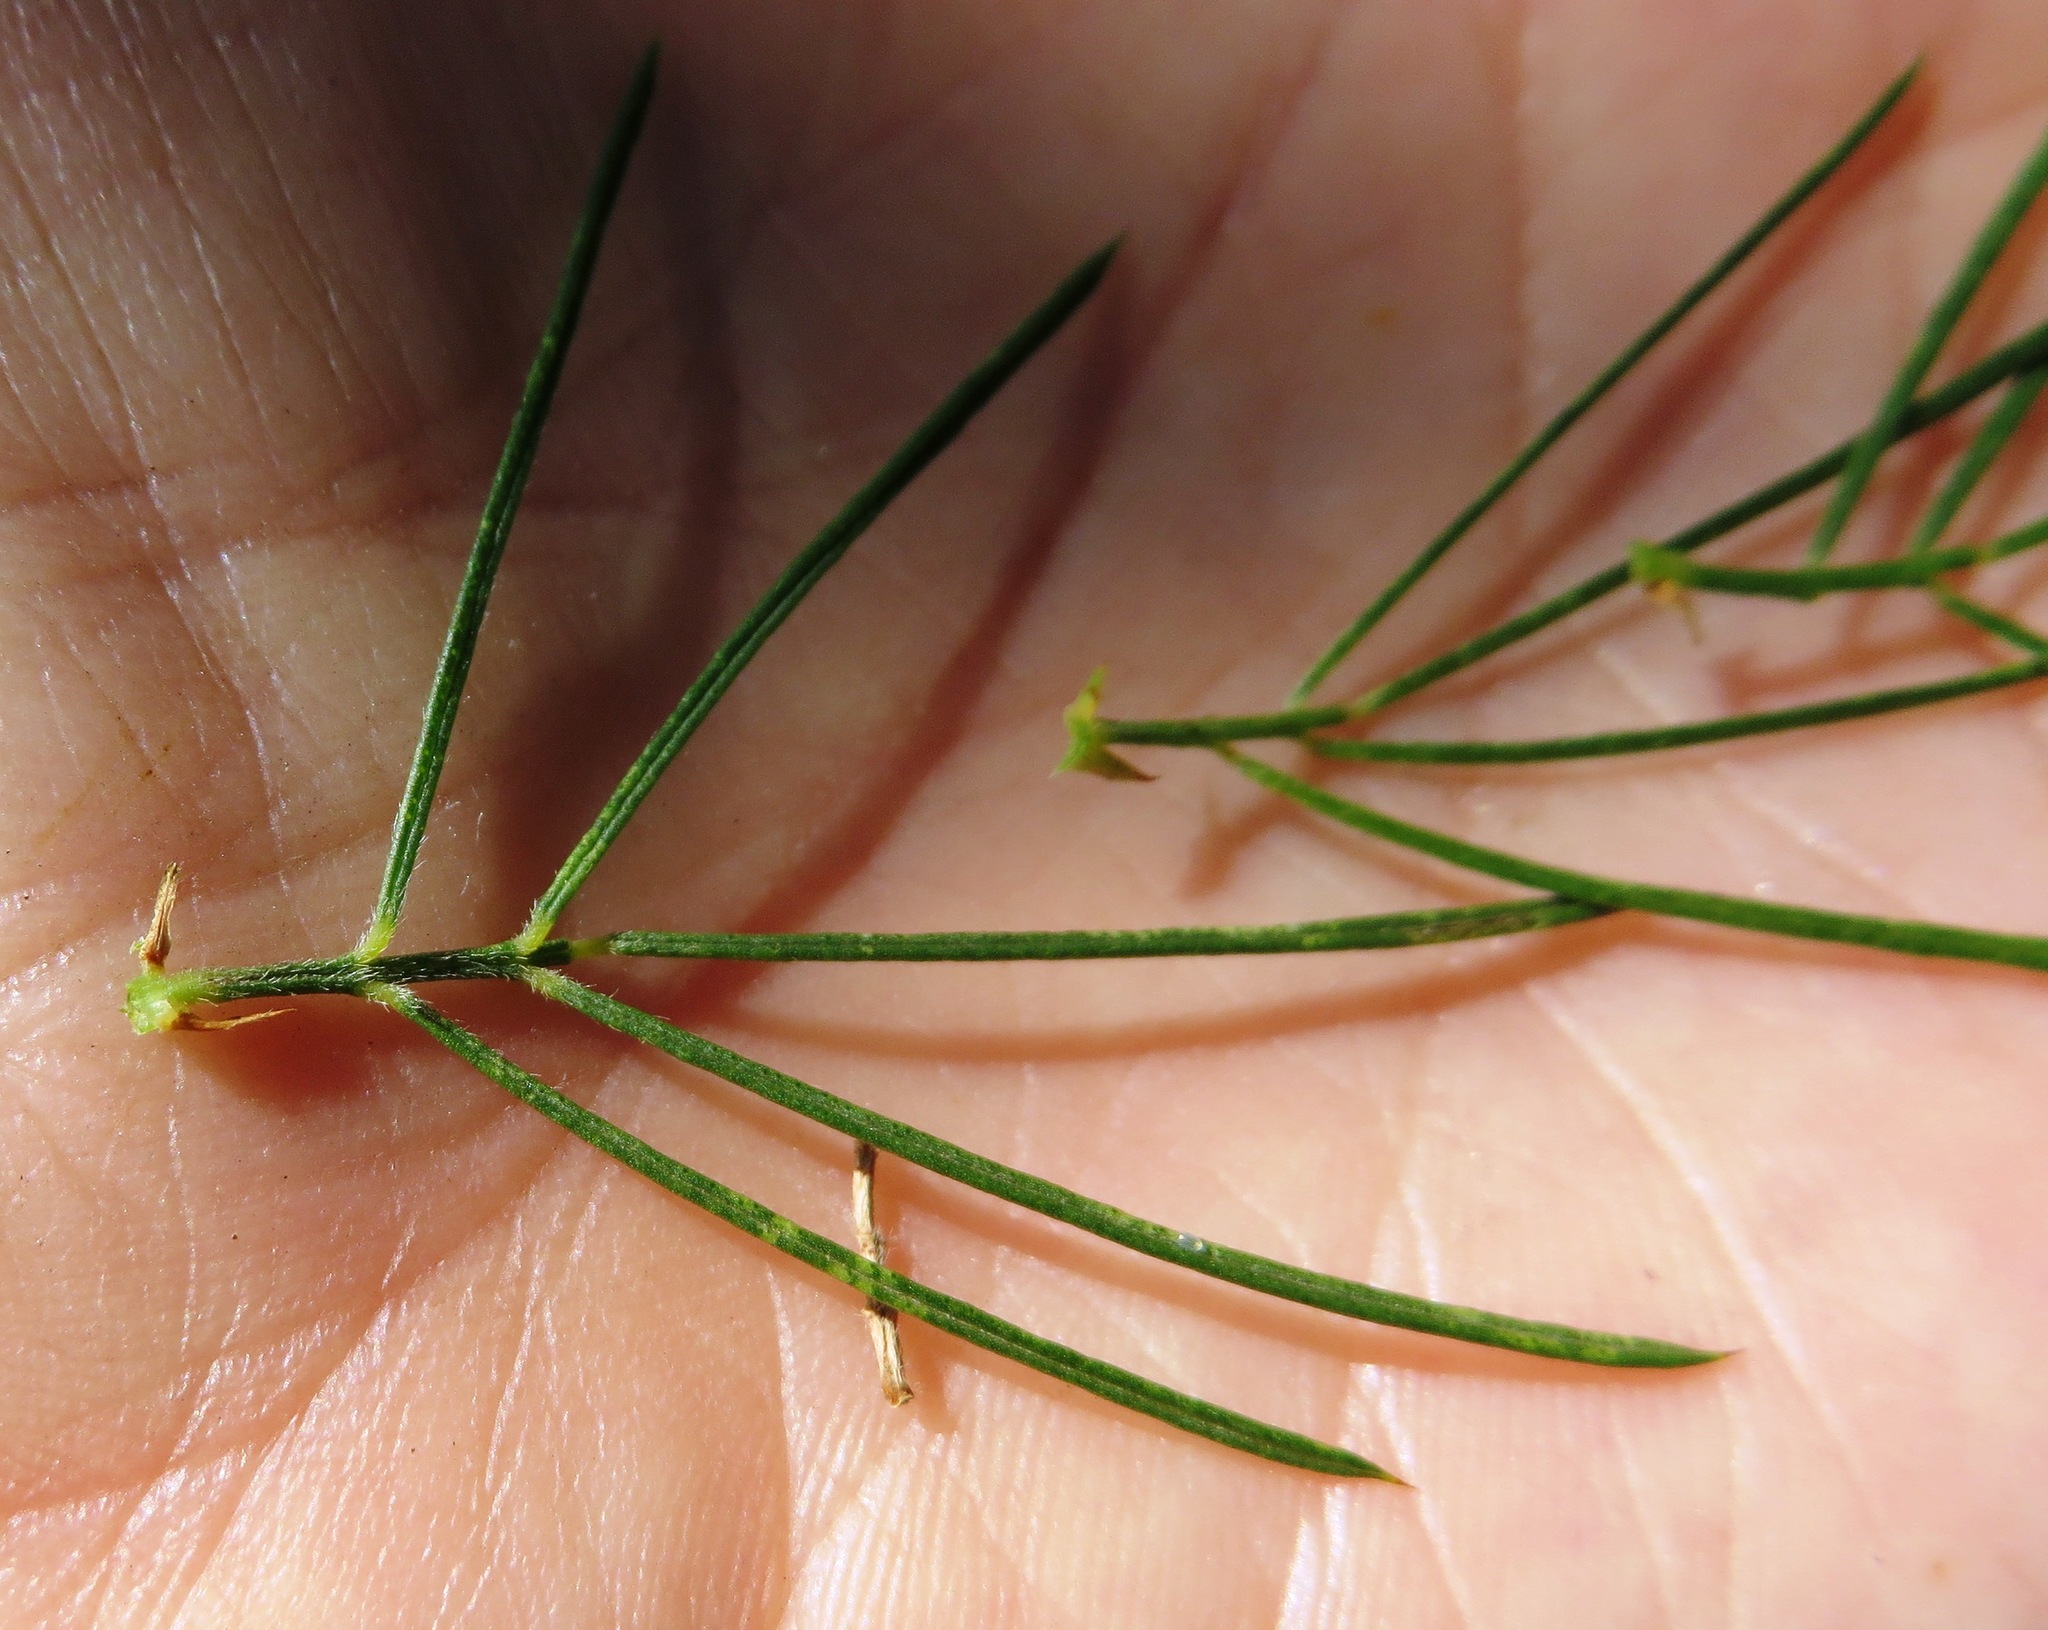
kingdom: Plantae
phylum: Tracheophyta
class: Magnoliopsida
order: Fabales
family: Fabaceae
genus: Psoralea
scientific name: Psoralea pinnata
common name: African scurfpea
